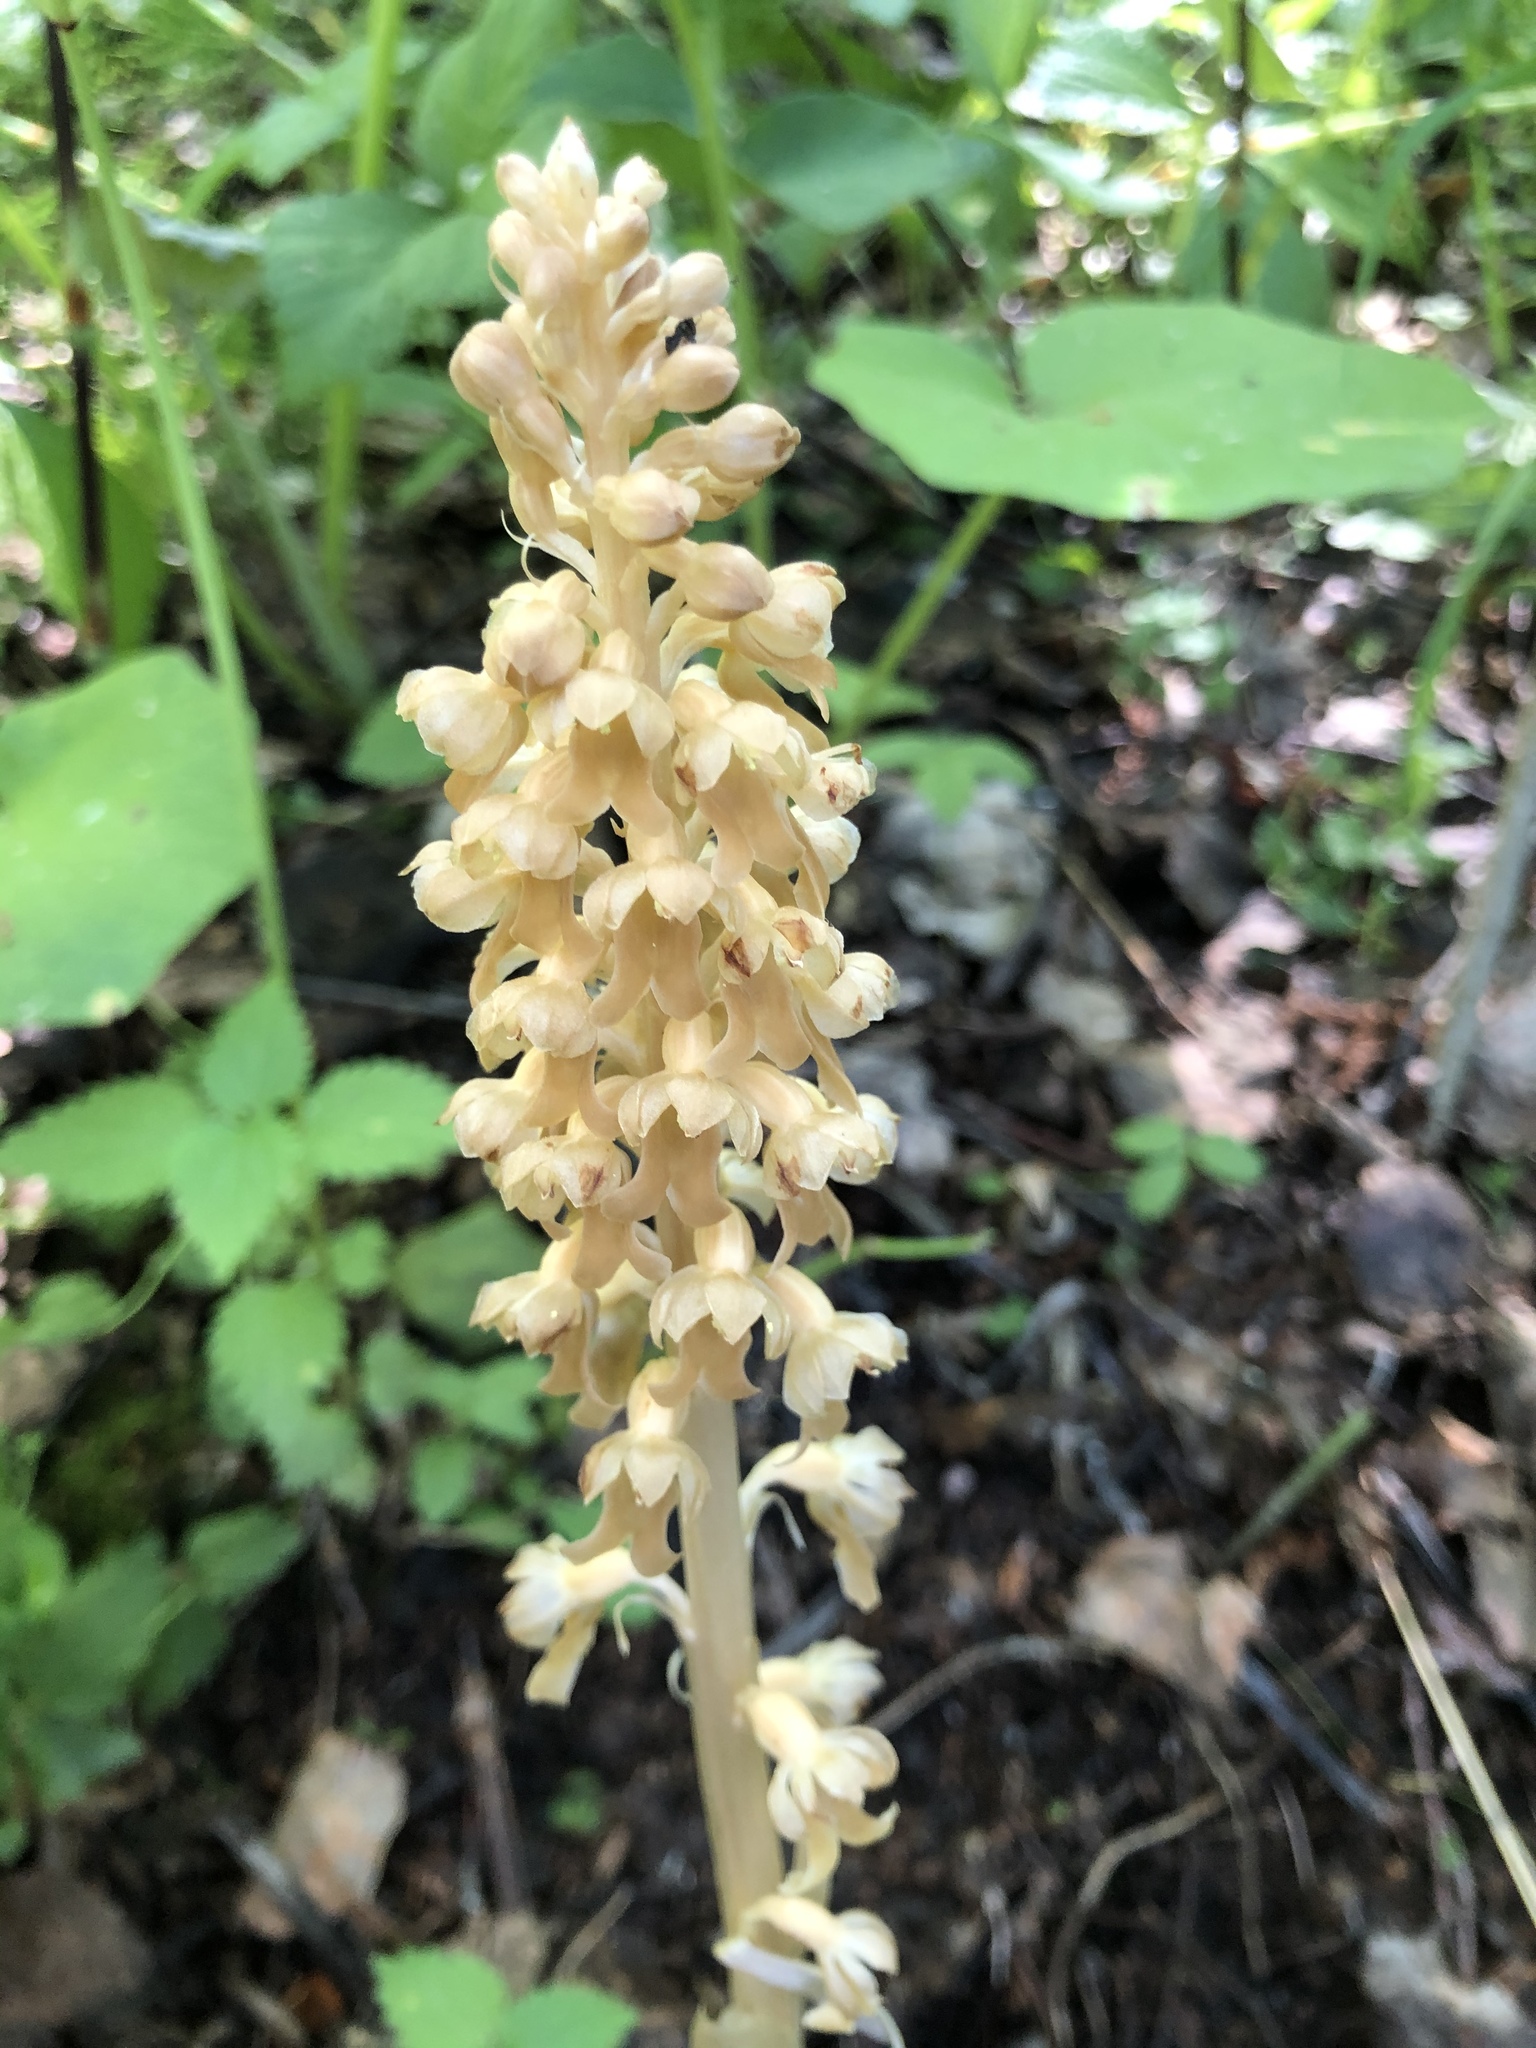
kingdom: Plantae
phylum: Tracheophyta
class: Liliopsida
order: Asparagales
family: Orchidaceae
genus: Neottia
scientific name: Neottia nidus-avis
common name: Bird's-nest orchid
